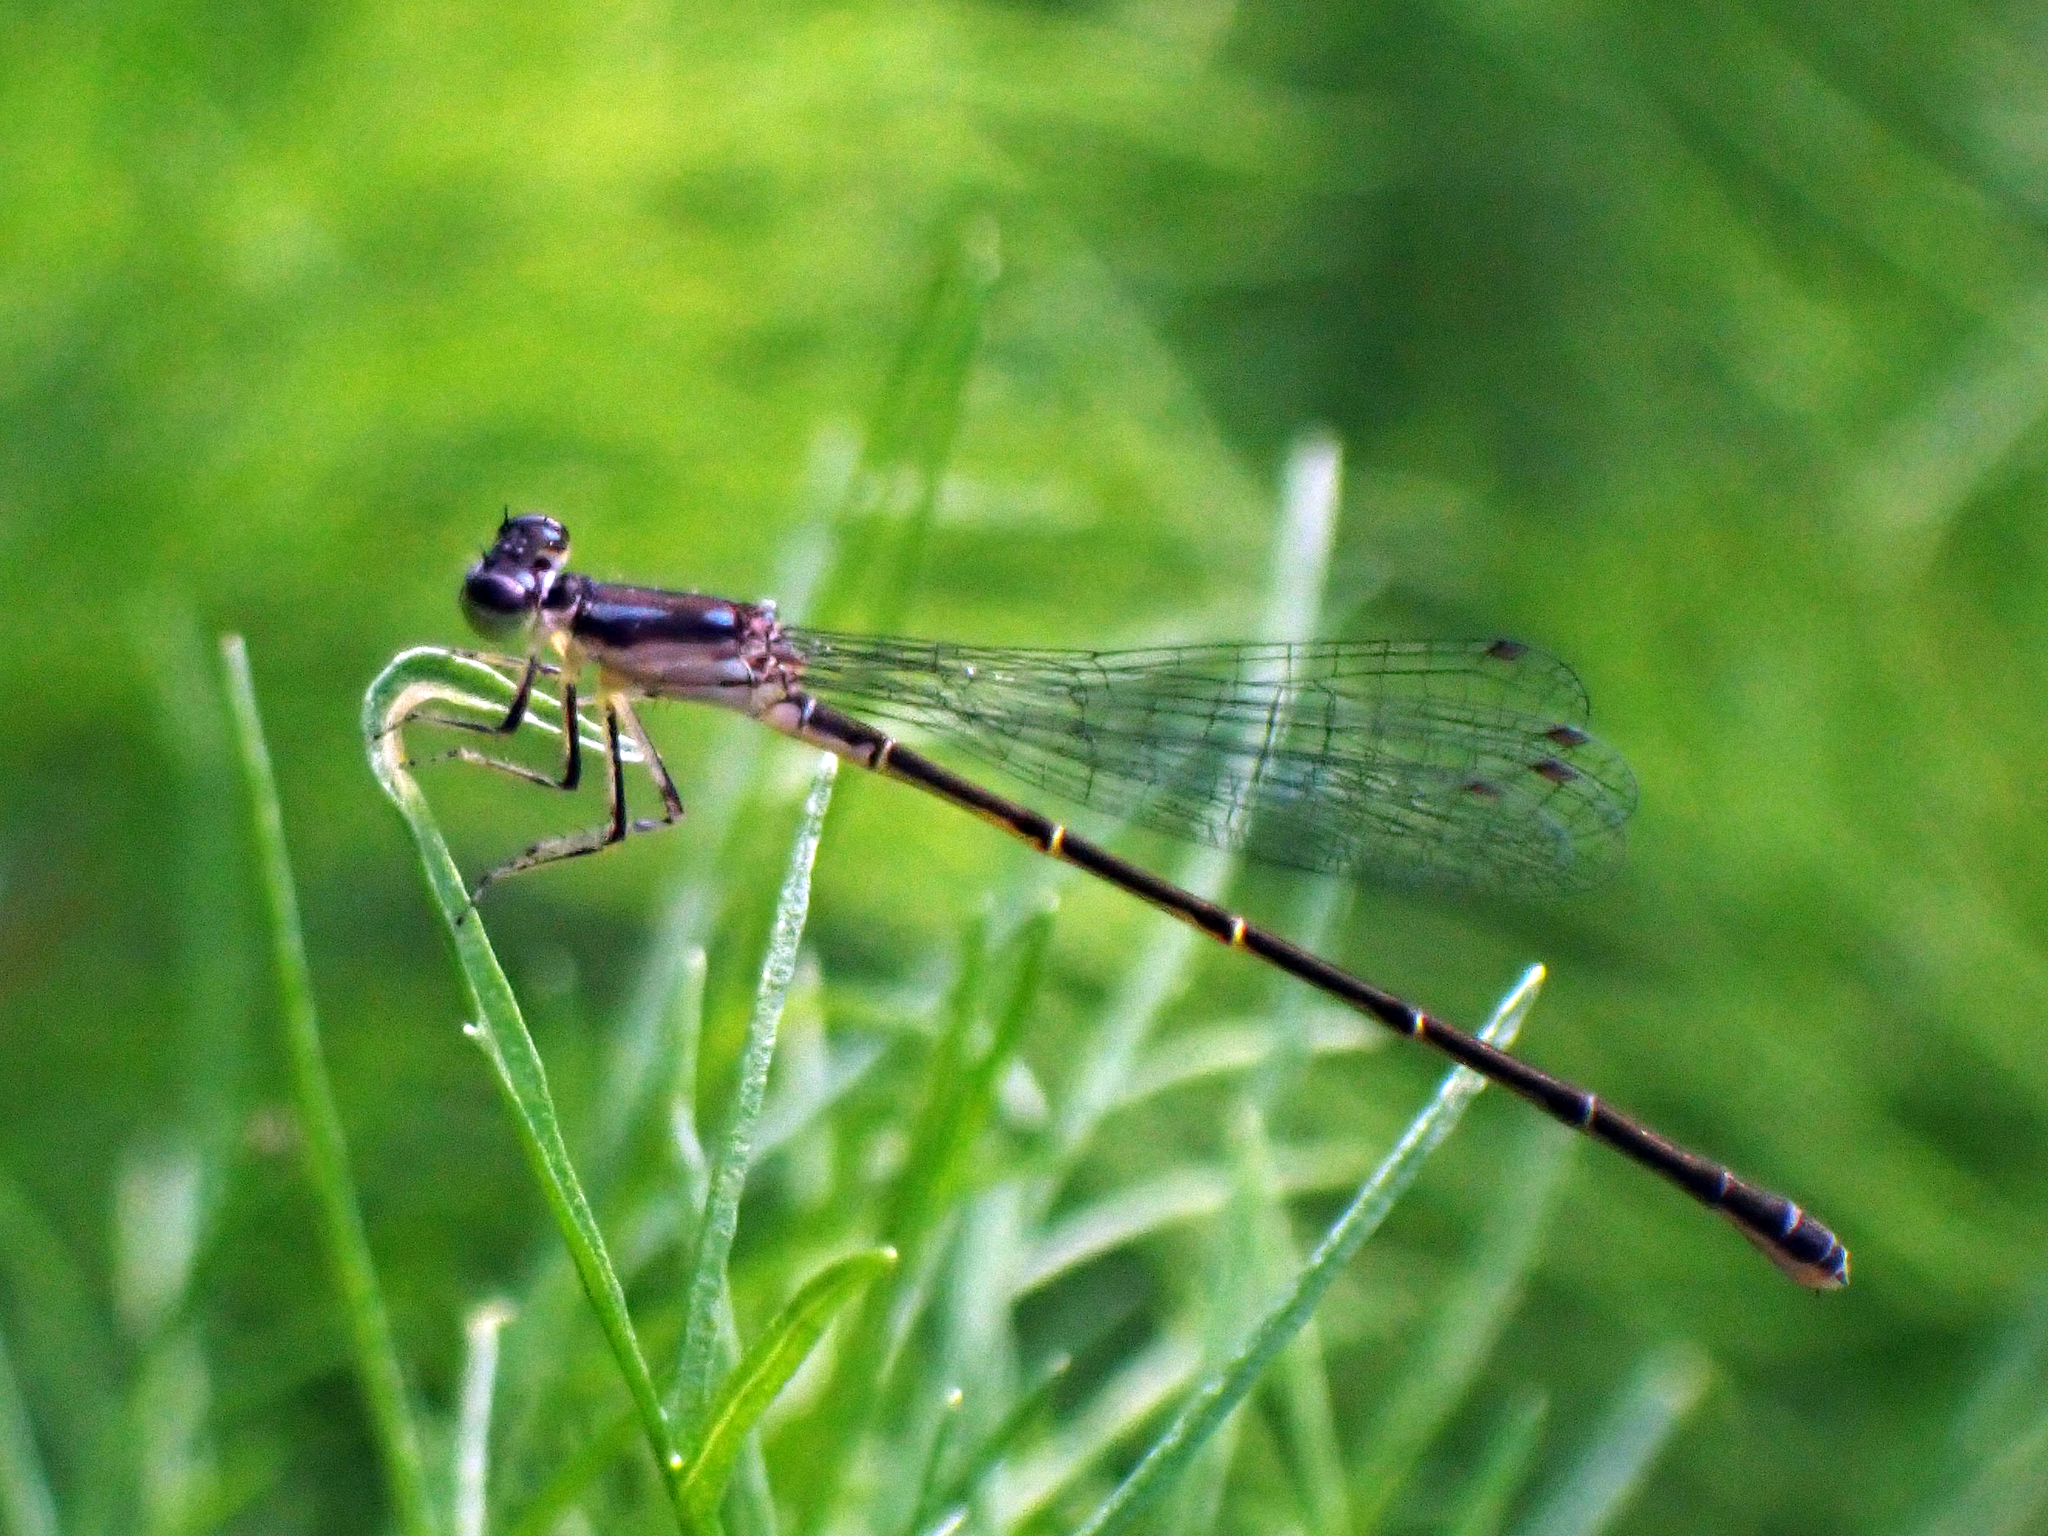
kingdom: Animalia
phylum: Arthropoda
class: Insecta
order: Odonata
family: Coenagrionidae
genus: Ischnura
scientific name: Ischnura posita
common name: Fragile forktail
